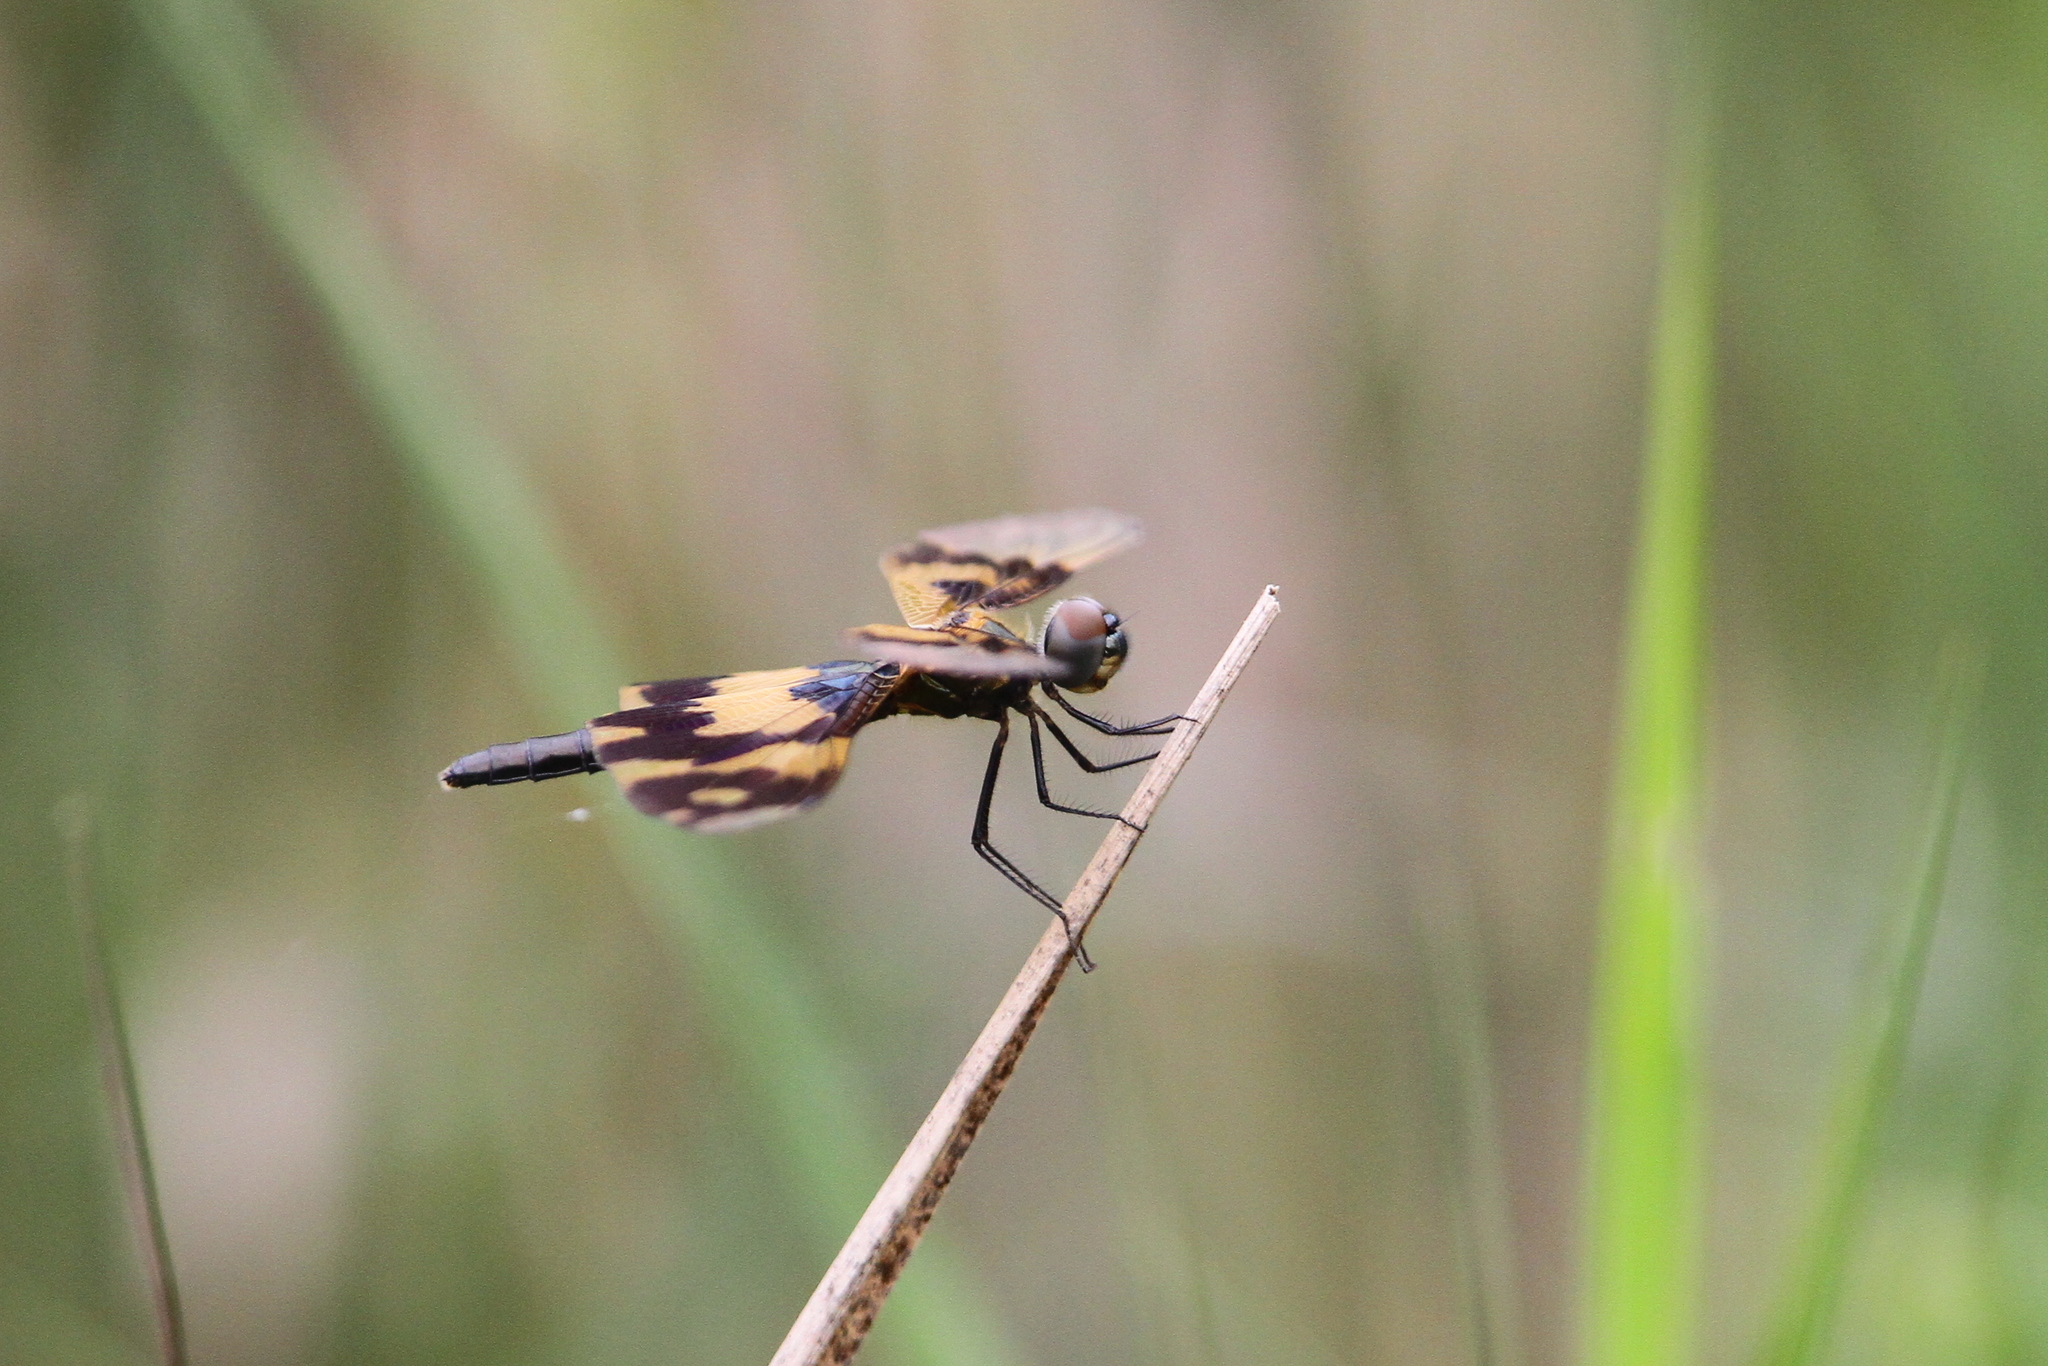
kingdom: Animalia
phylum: Arthropoda
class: Insecta
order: Odonata
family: Libellulidae
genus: Rhyothemis
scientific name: Rhyothemis variegata
